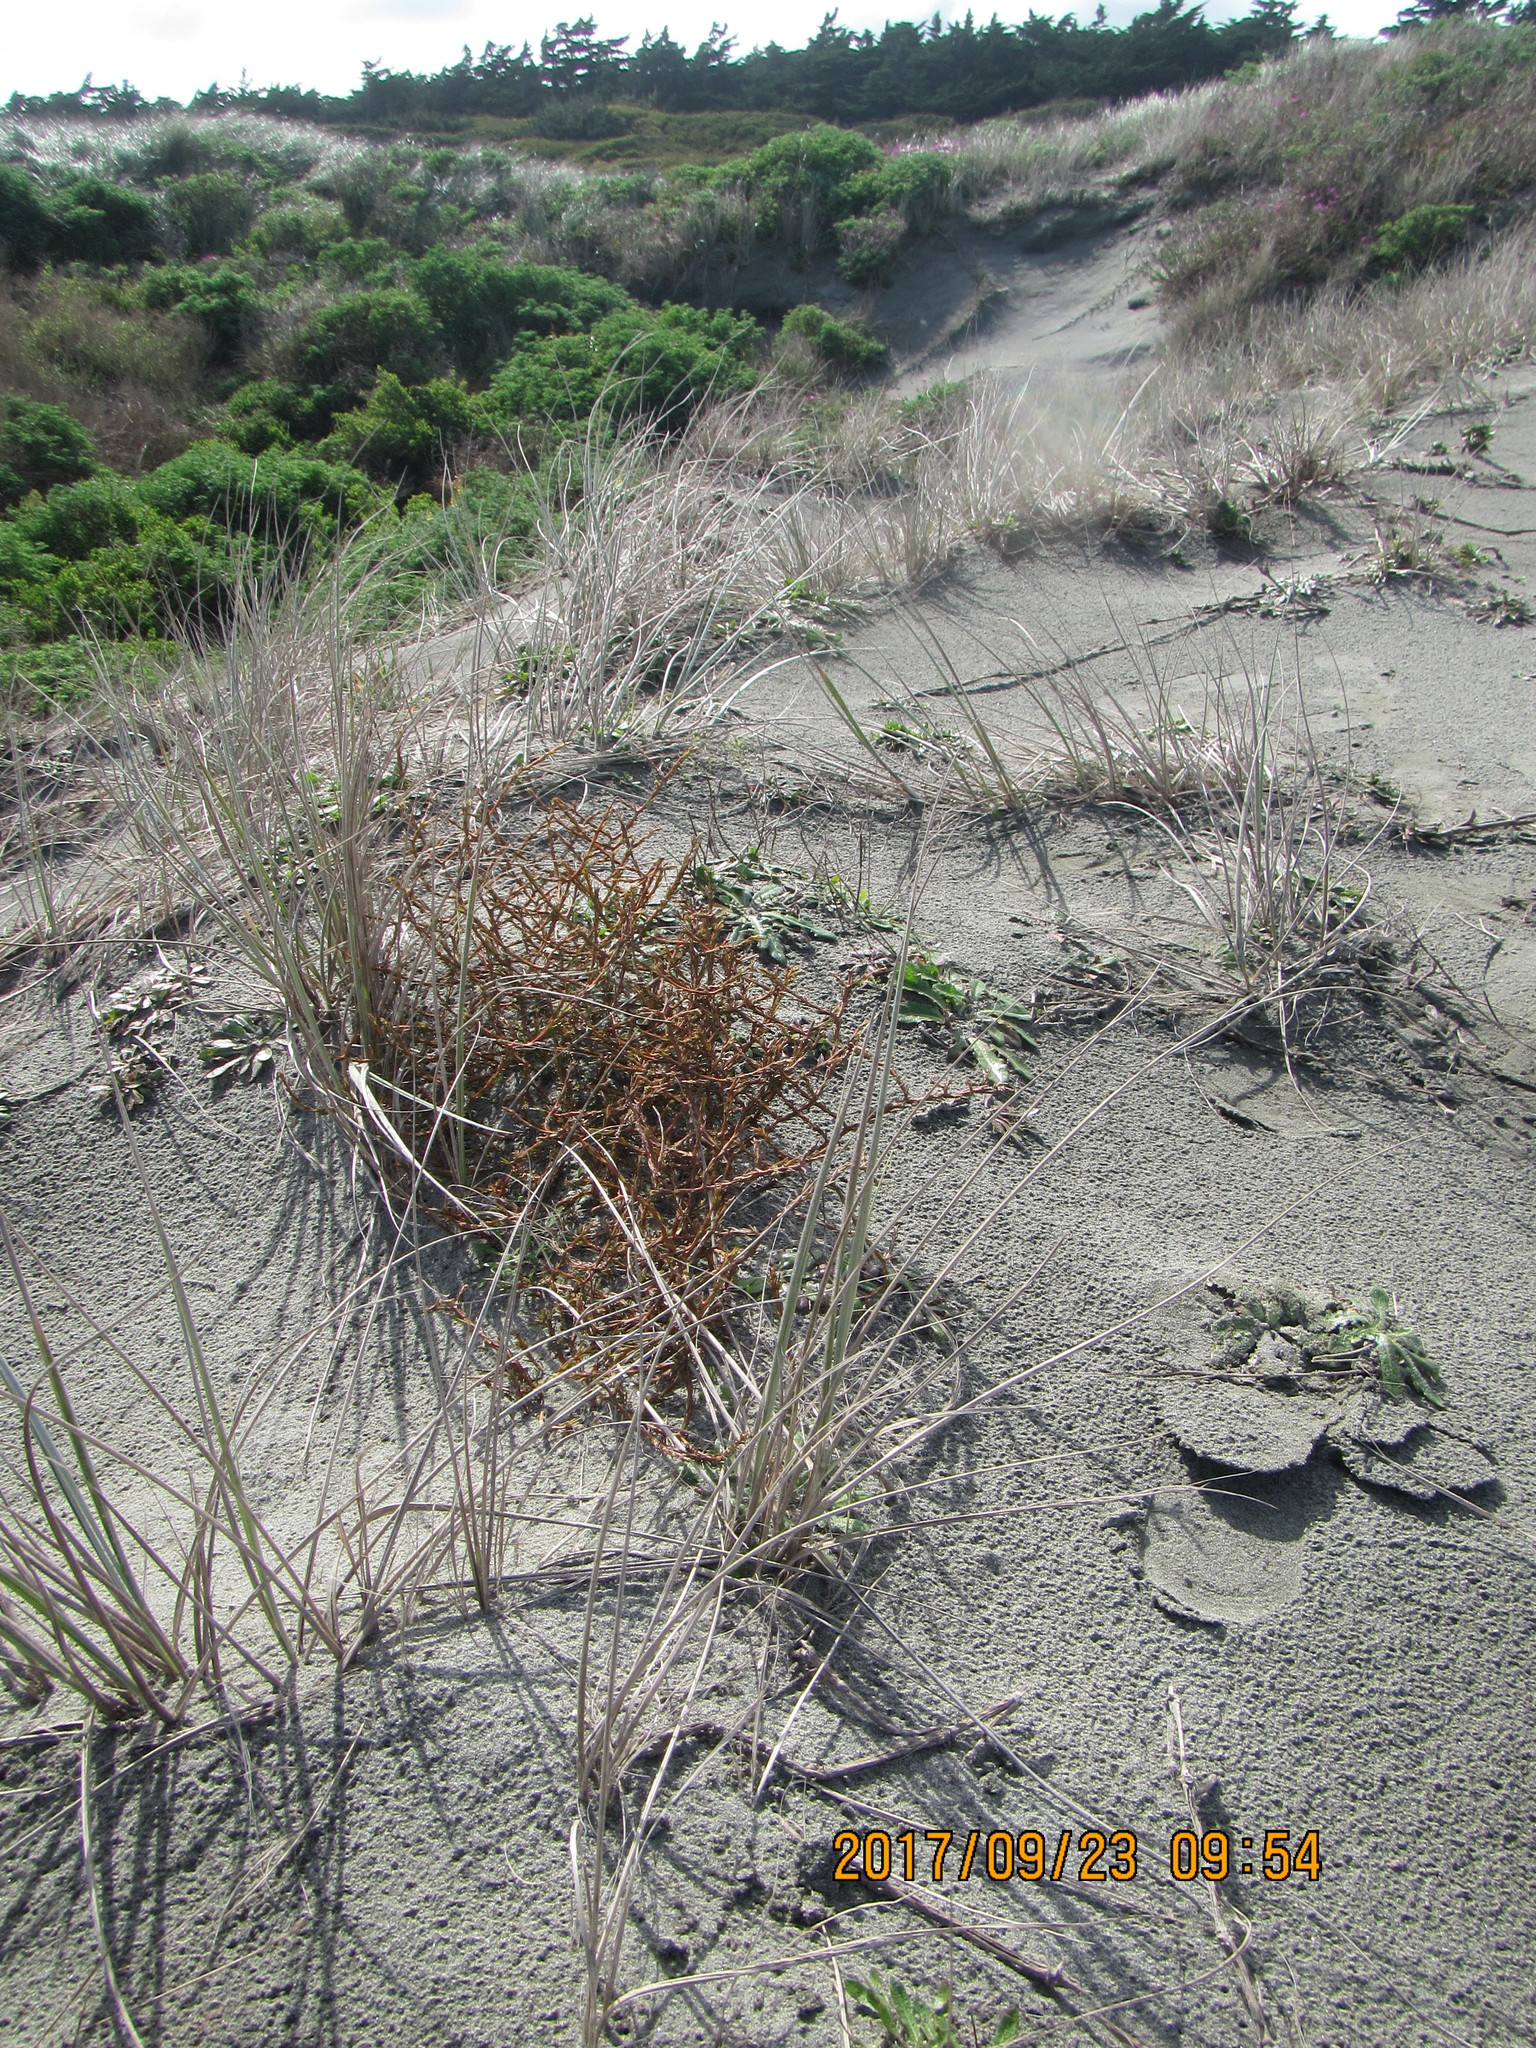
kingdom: Plantae
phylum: Tracheophyta
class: Magnoliopsida
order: Gentianales
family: Rubiaceae
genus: Coprosma
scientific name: Coprosma acerosa
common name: Sand coprosma
